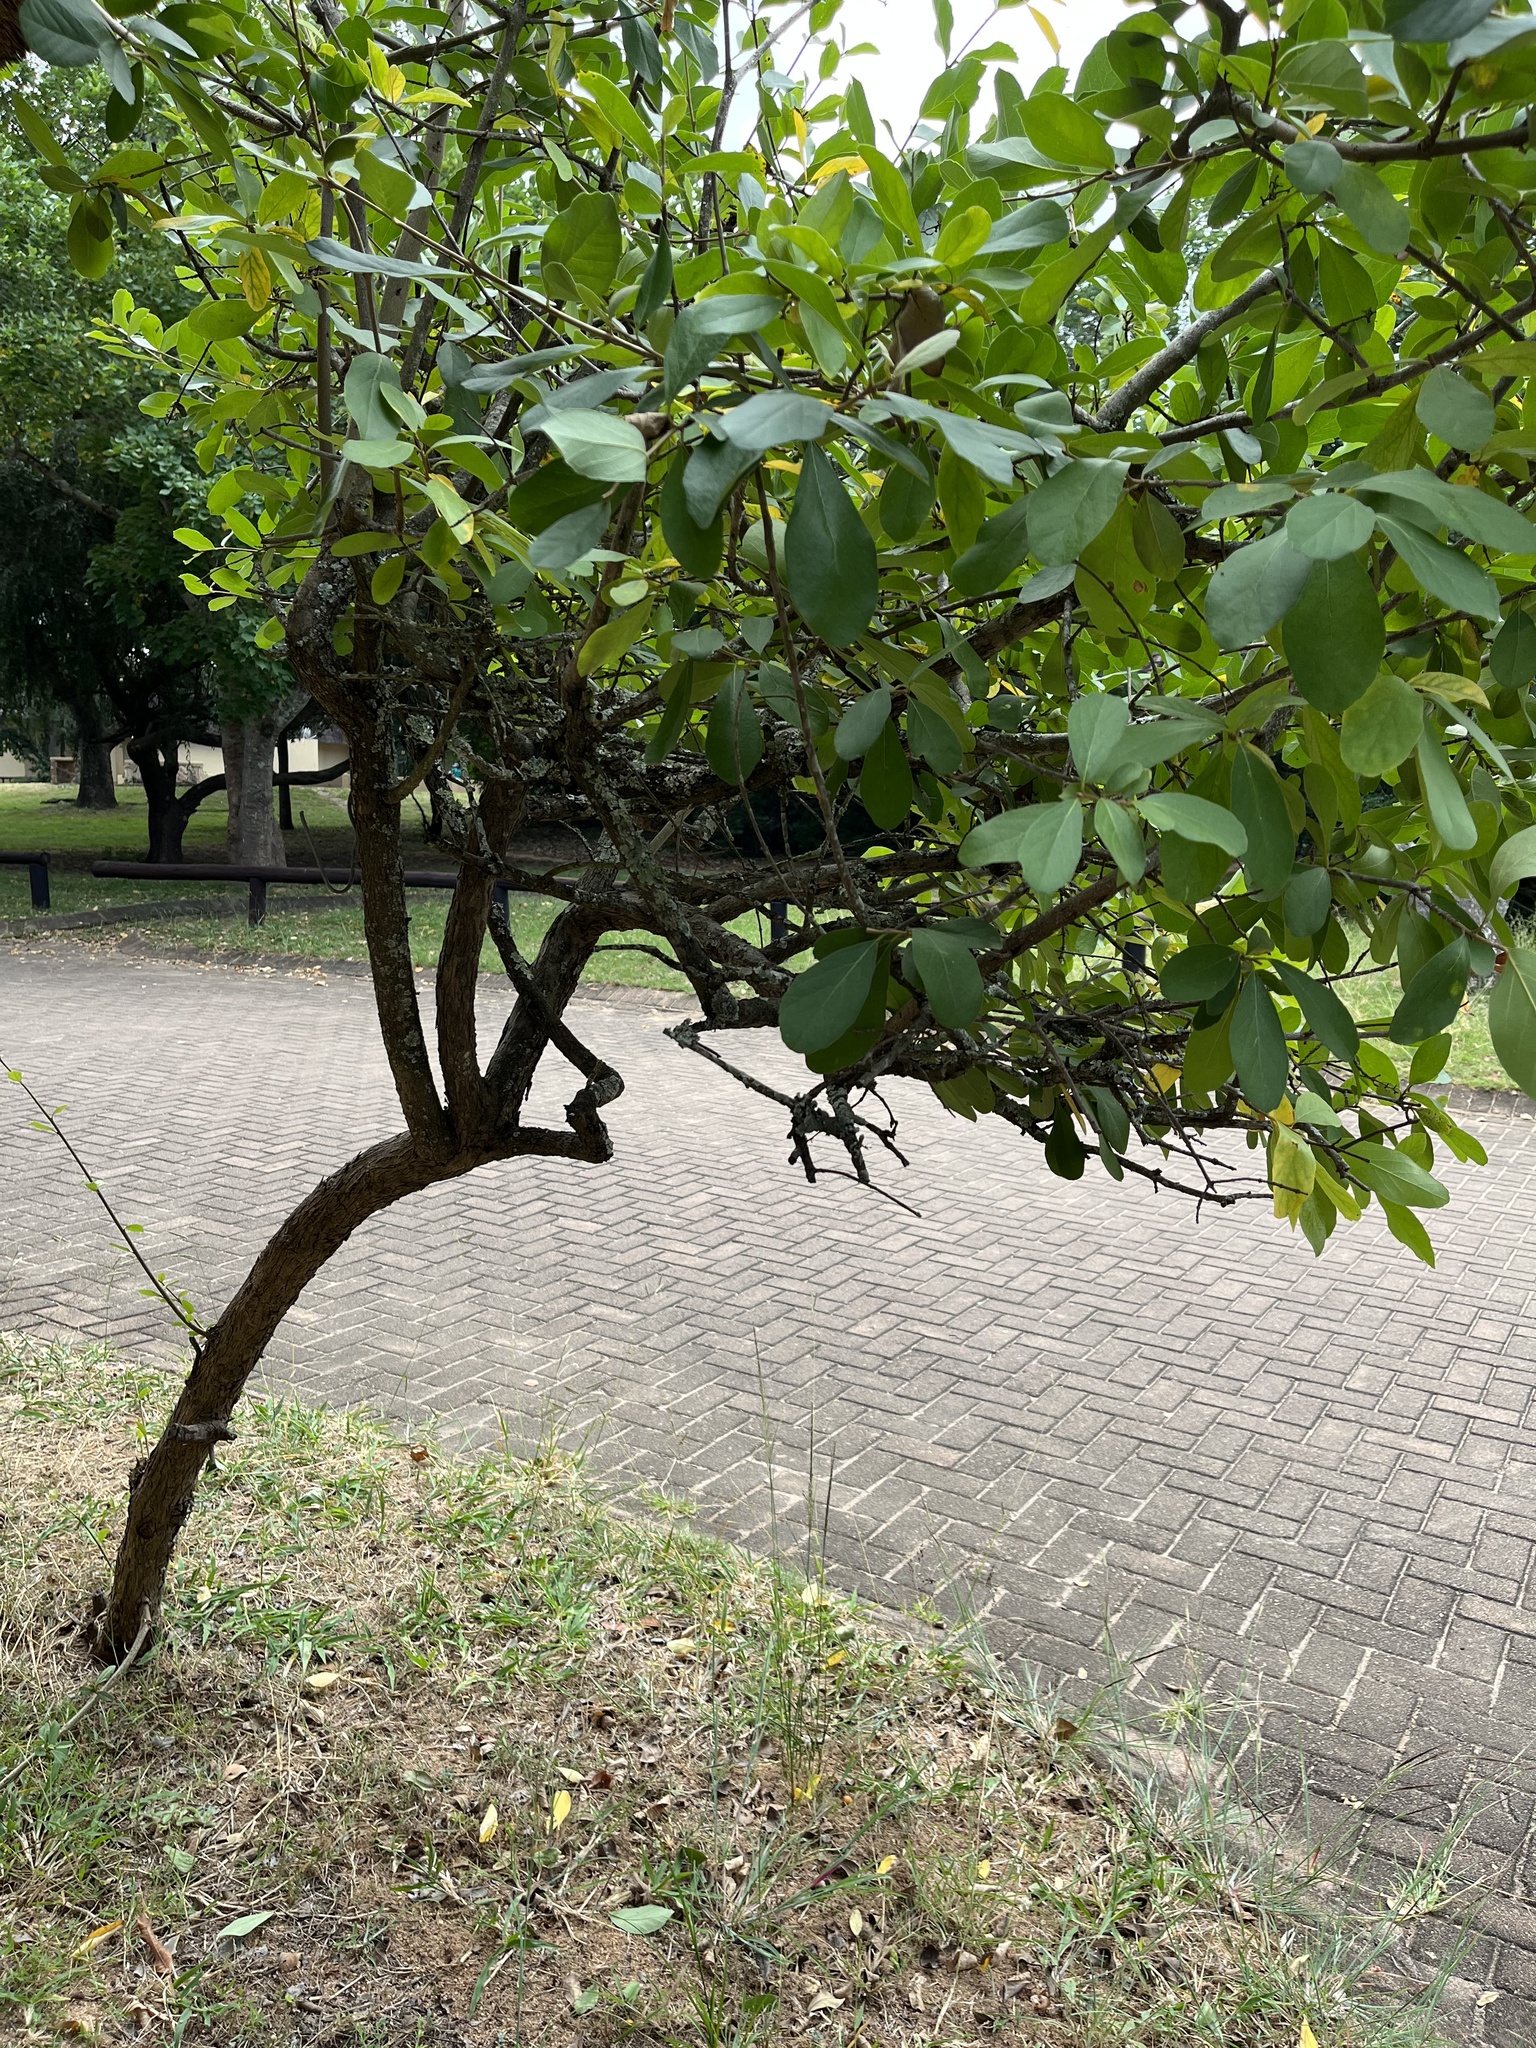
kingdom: Plantae
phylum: Tracheophyta
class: Magnoliopsida
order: Boraginales
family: Cordiaceae
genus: Cordia
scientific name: Cordia quercifolia
